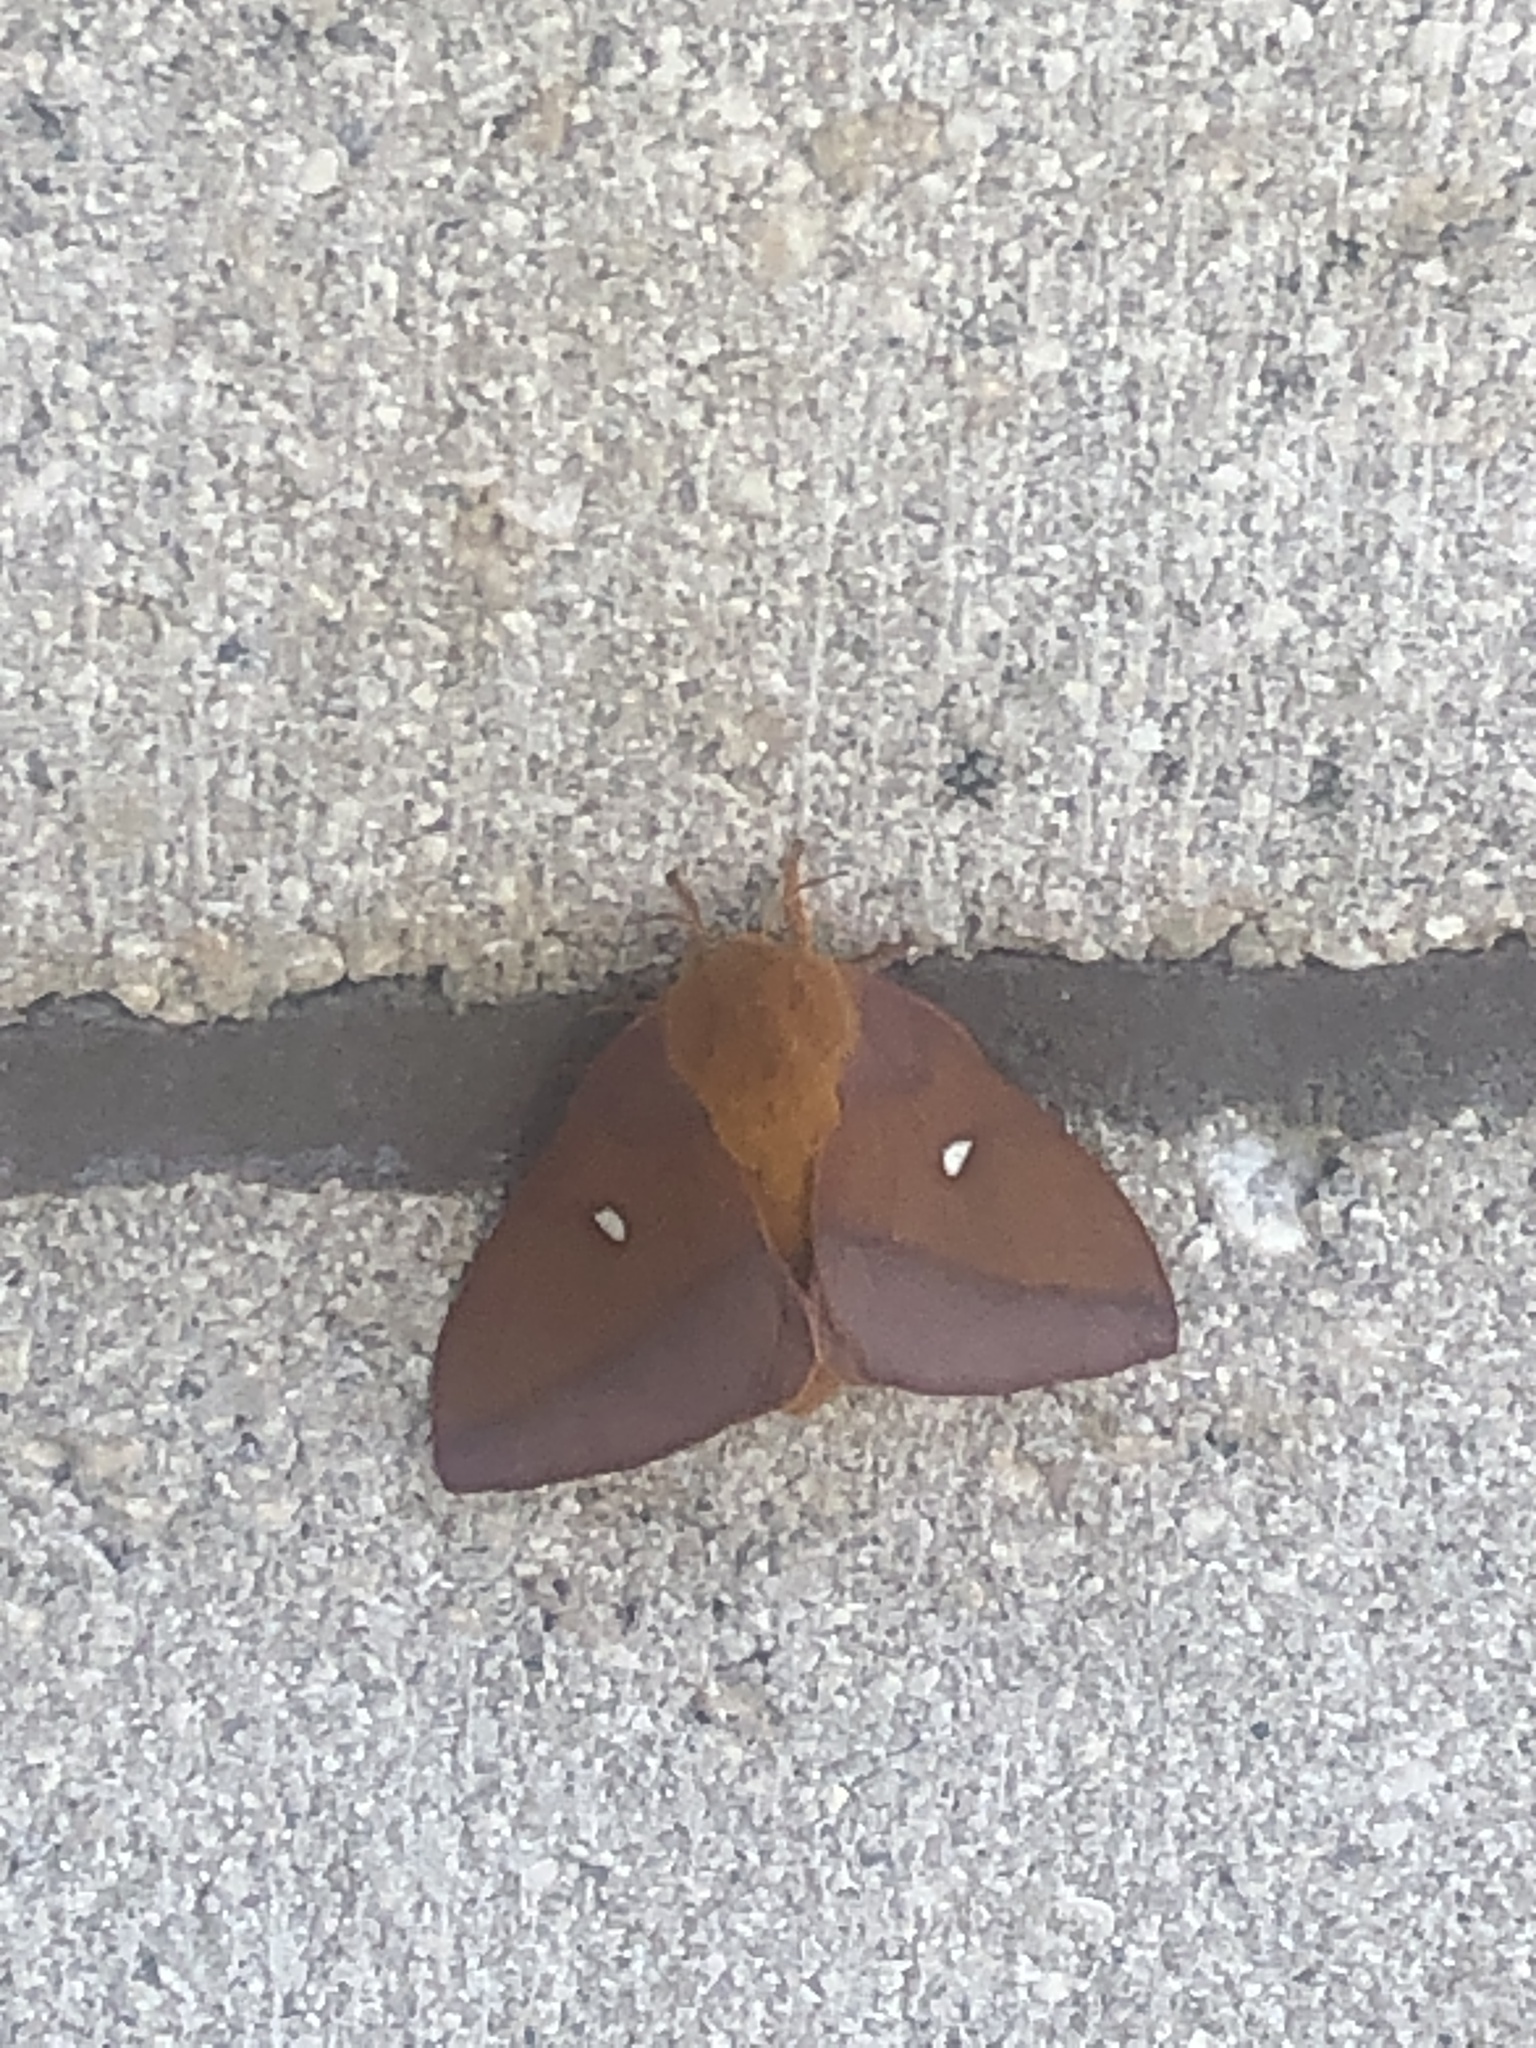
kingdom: Animalia
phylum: Arthropoda
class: Insecta
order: Lepidoptera
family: Saturniidae
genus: Anisota
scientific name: Anisota virginiensis
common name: Pink striped oakworm moth
